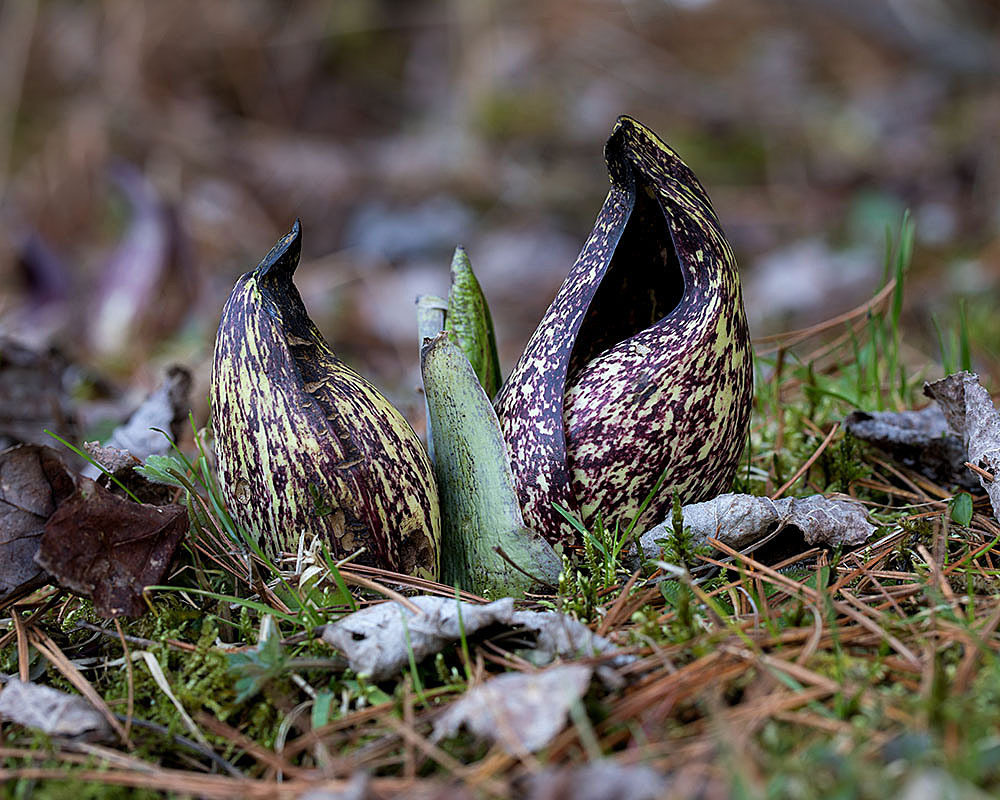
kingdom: Plantae
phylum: Tracheophyta
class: Liliopsida
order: Alismatales
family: Araceae
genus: Symplocarpus
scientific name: Symplocarpus foetidus
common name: Eastern skunk cabbage
